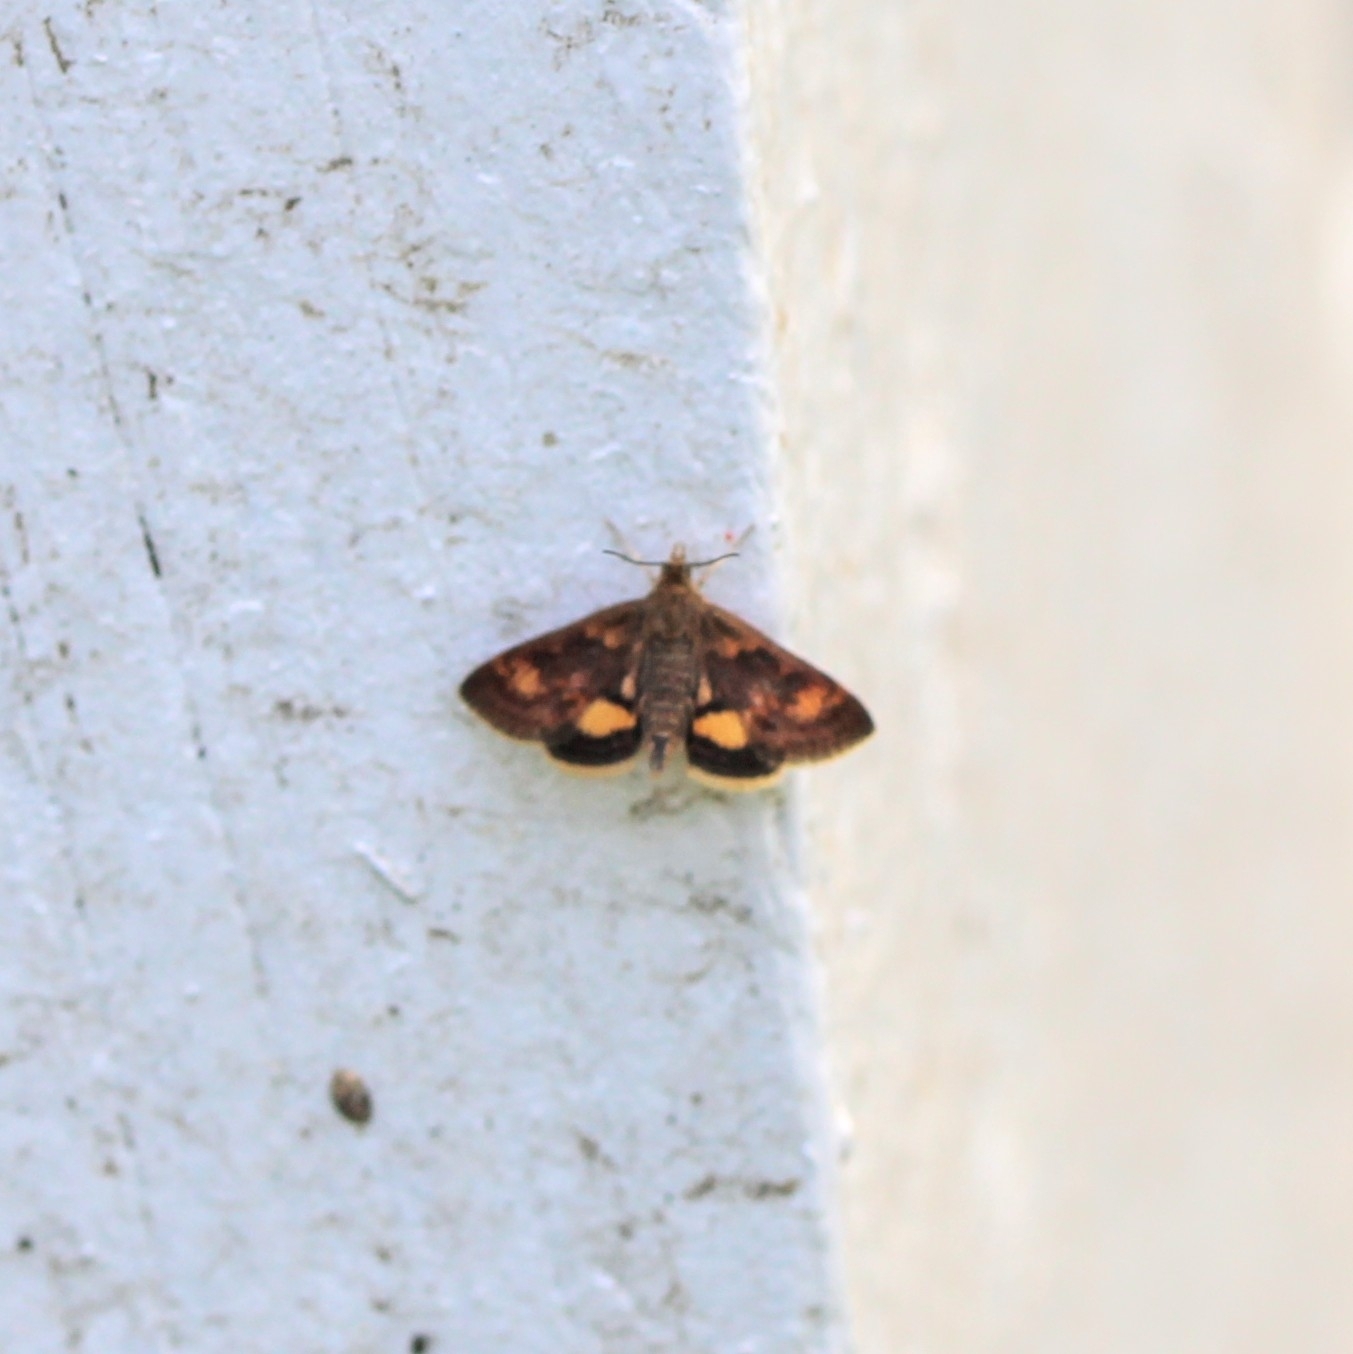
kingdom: Animalia
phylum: Arthropoda
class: Insecta
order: Lepidoptera
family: Crambidae
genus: Pyrausta
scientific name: Pyrausta orphisalis
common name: Orange mint moth
